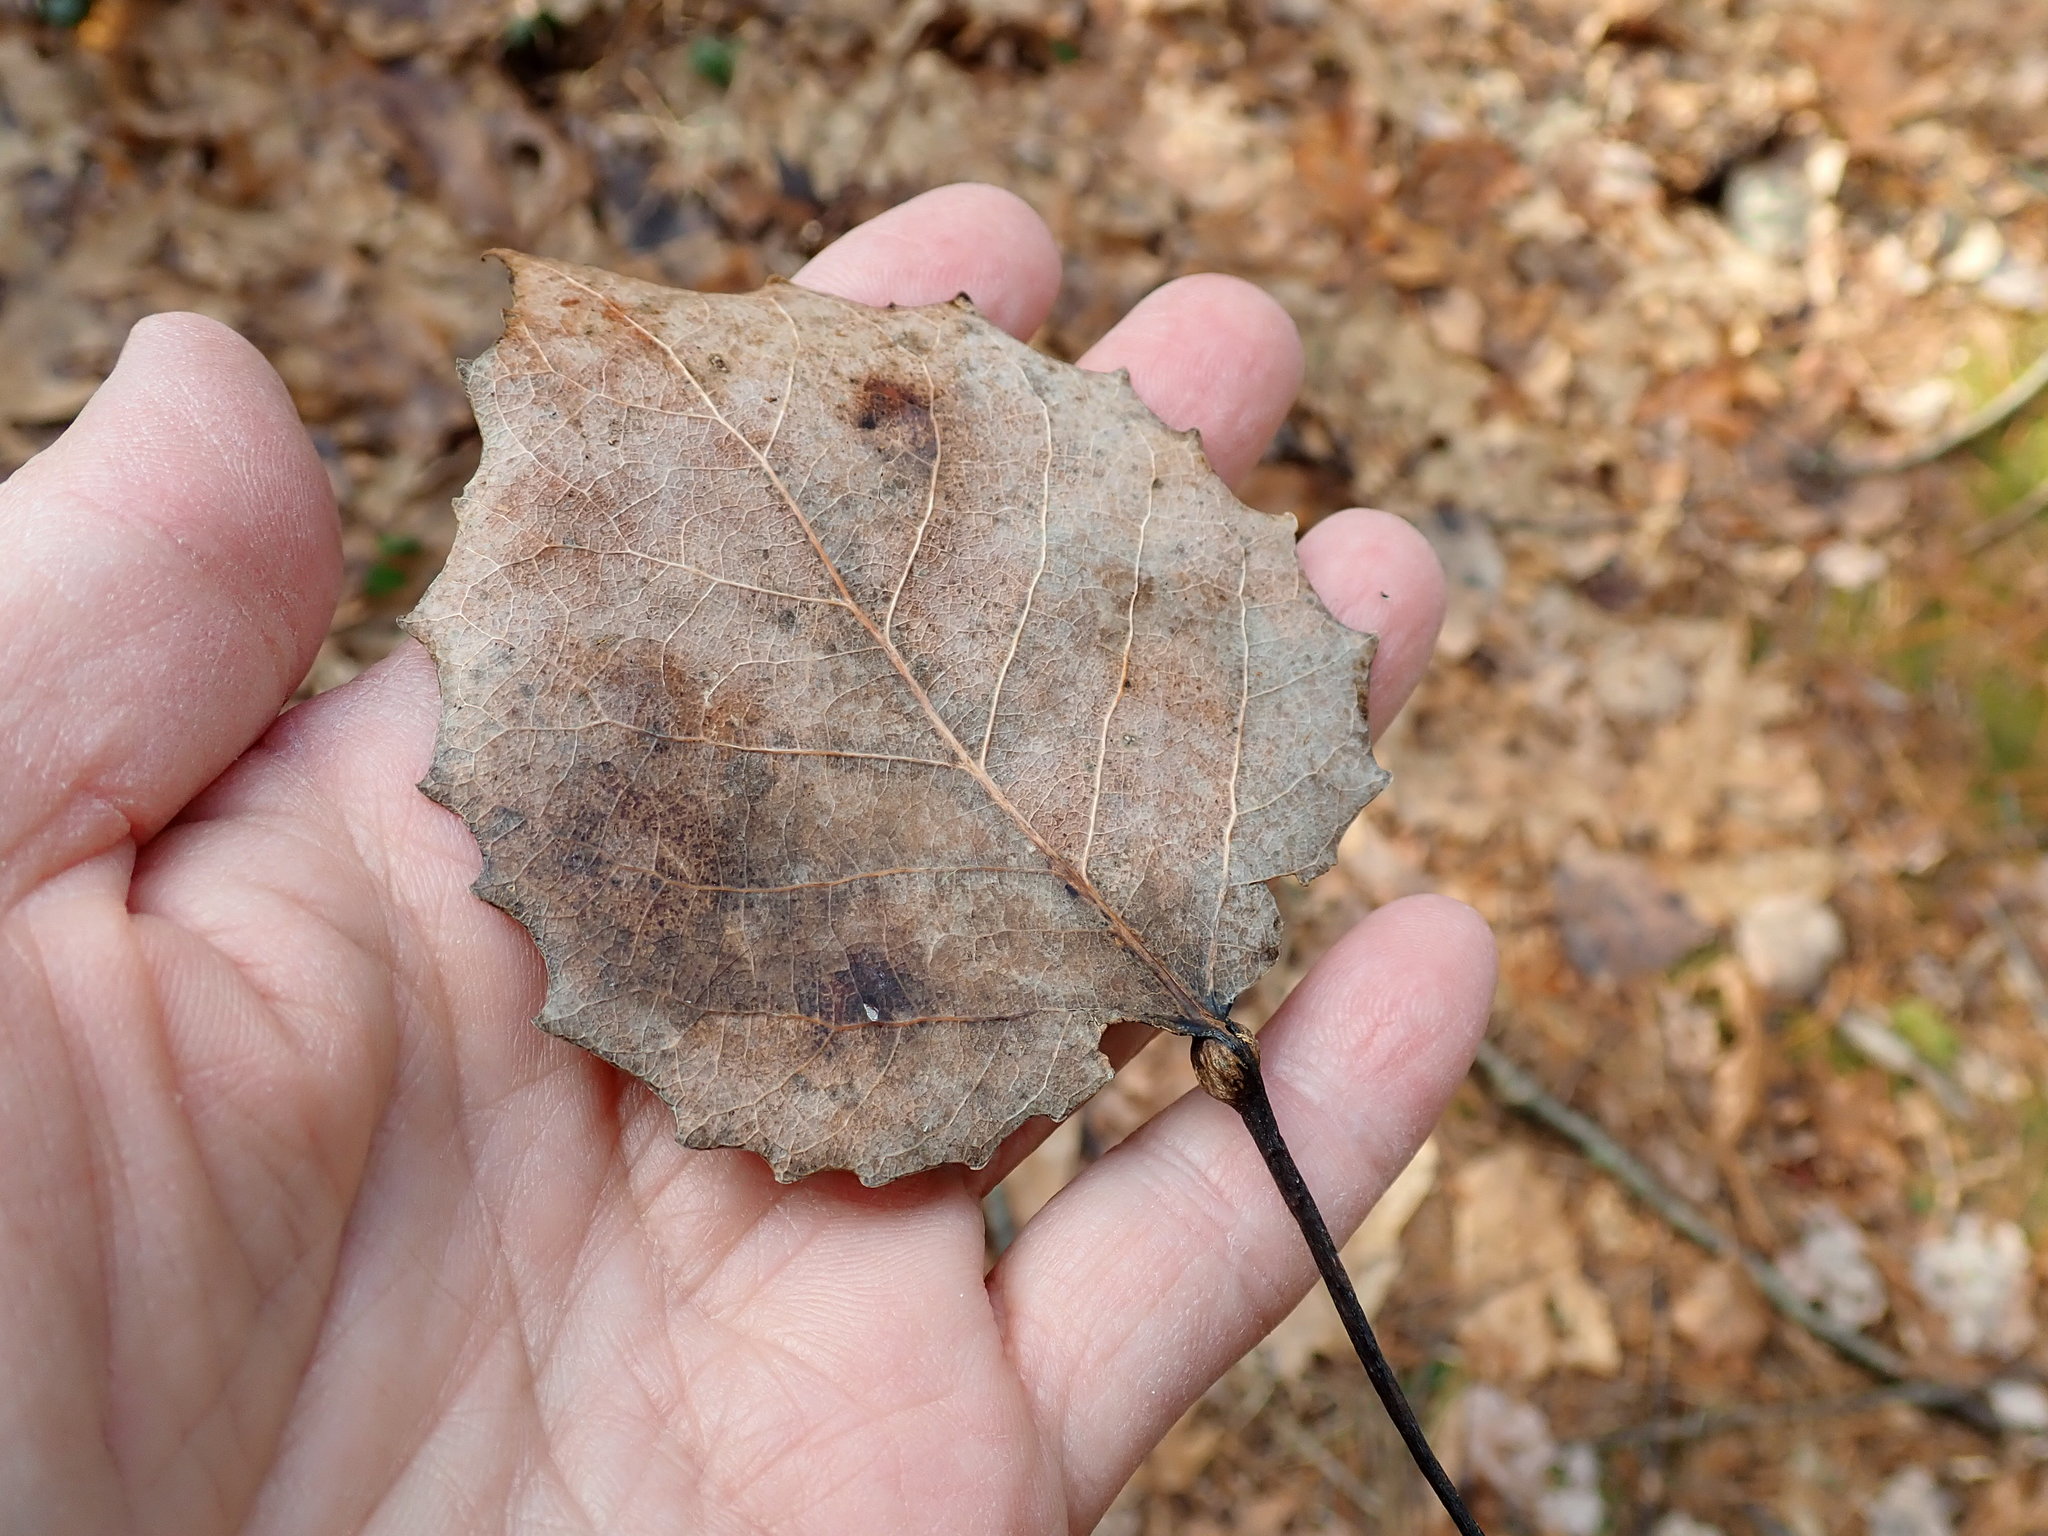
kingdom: Plantae
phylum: Tracheophyta
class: Magnoliopsida
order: Malpighiales
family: Salicaceae
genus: Populus
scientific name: Populus grandidentata
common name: Bigtooth aspen
